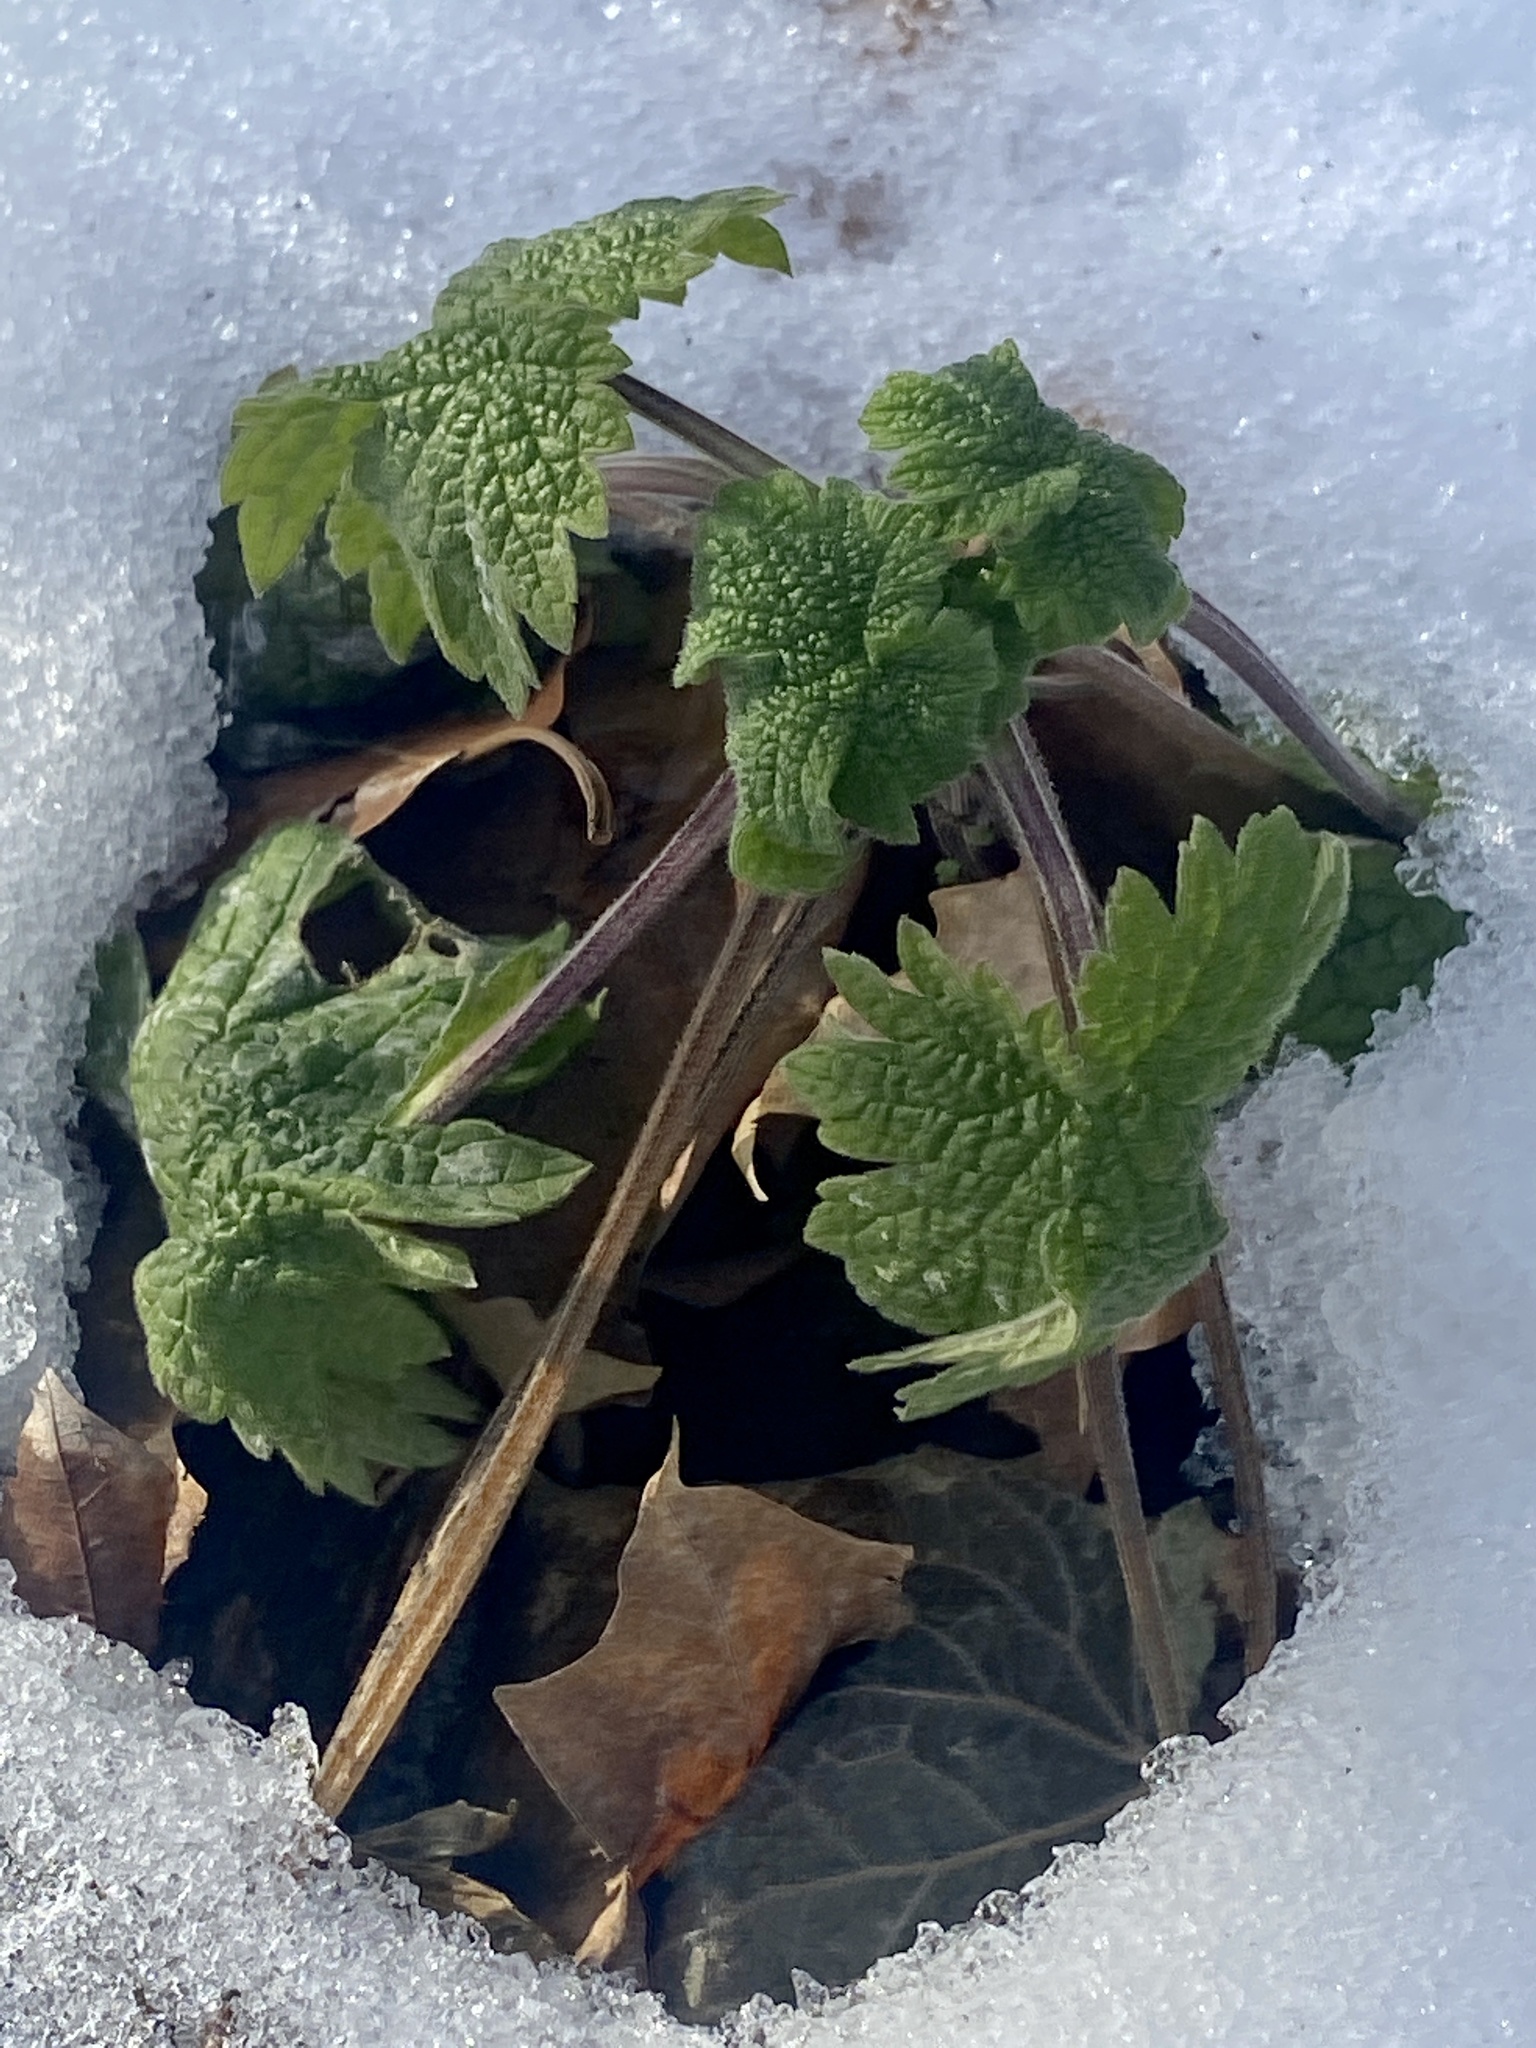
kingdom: Plantae
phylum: Tracheophyta
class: Magnoliopsida
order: Lamiales
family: Lamiaceae
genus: Leonurus
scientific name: Leonurus cardiaca
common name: Motherwort
